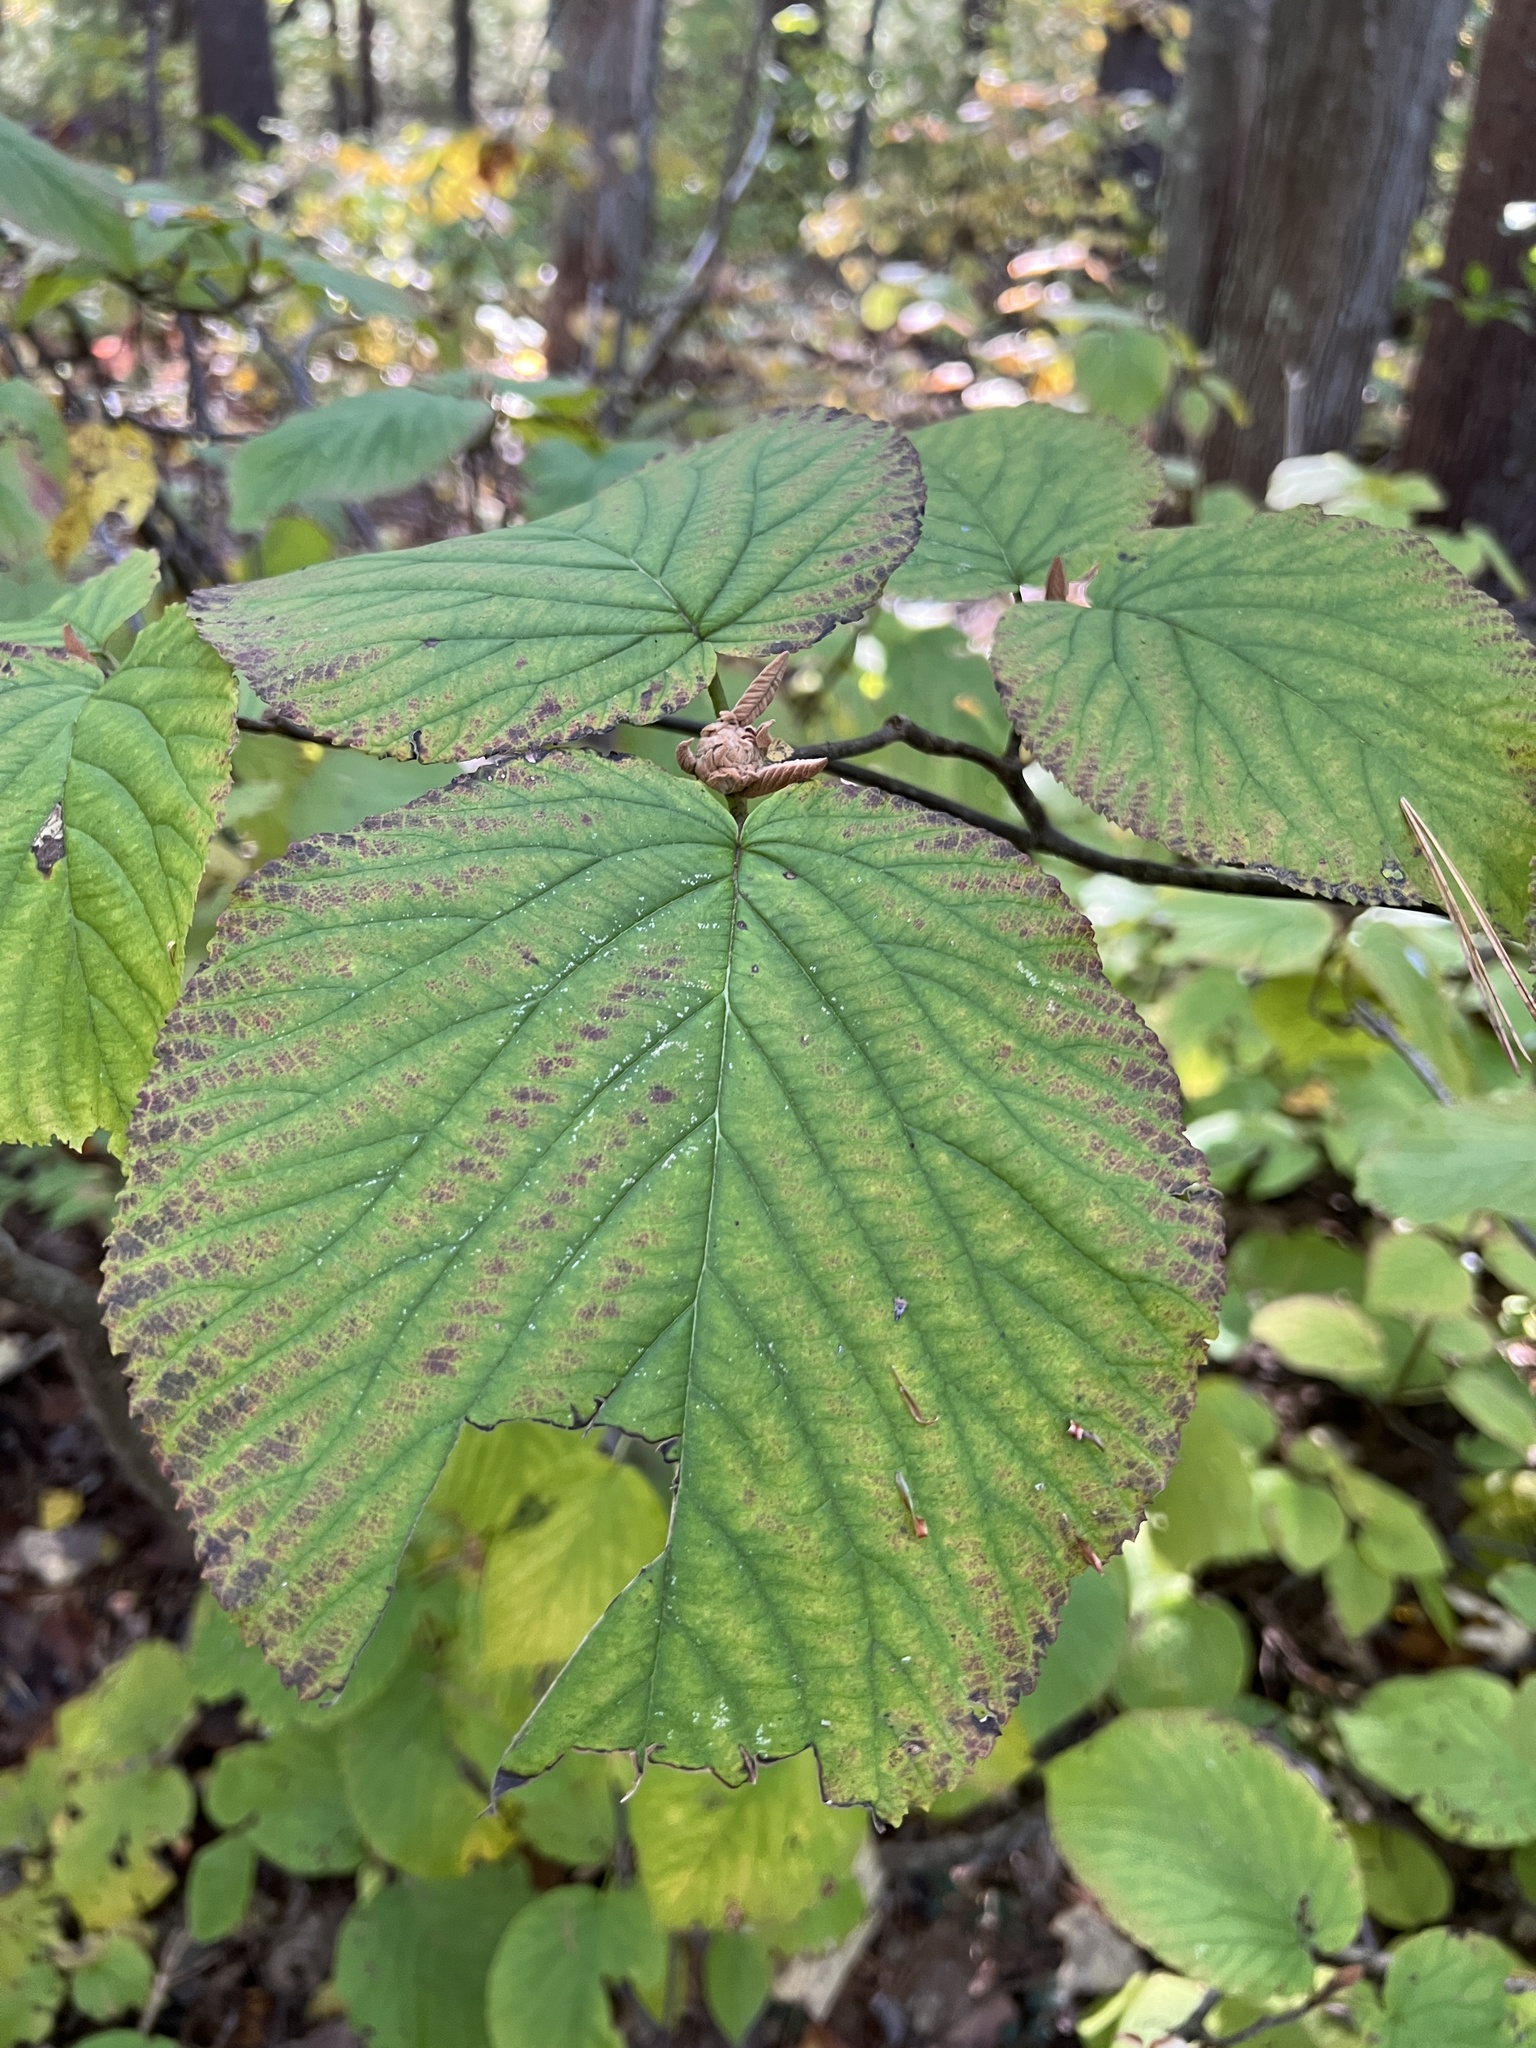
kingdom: Plantae
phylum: Tracheophyta
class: Magnoliopsida
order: Dipsacales
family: Viburnaceae
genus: Viburnum
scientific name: Viburnum lantanoides
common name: Hobblebush
